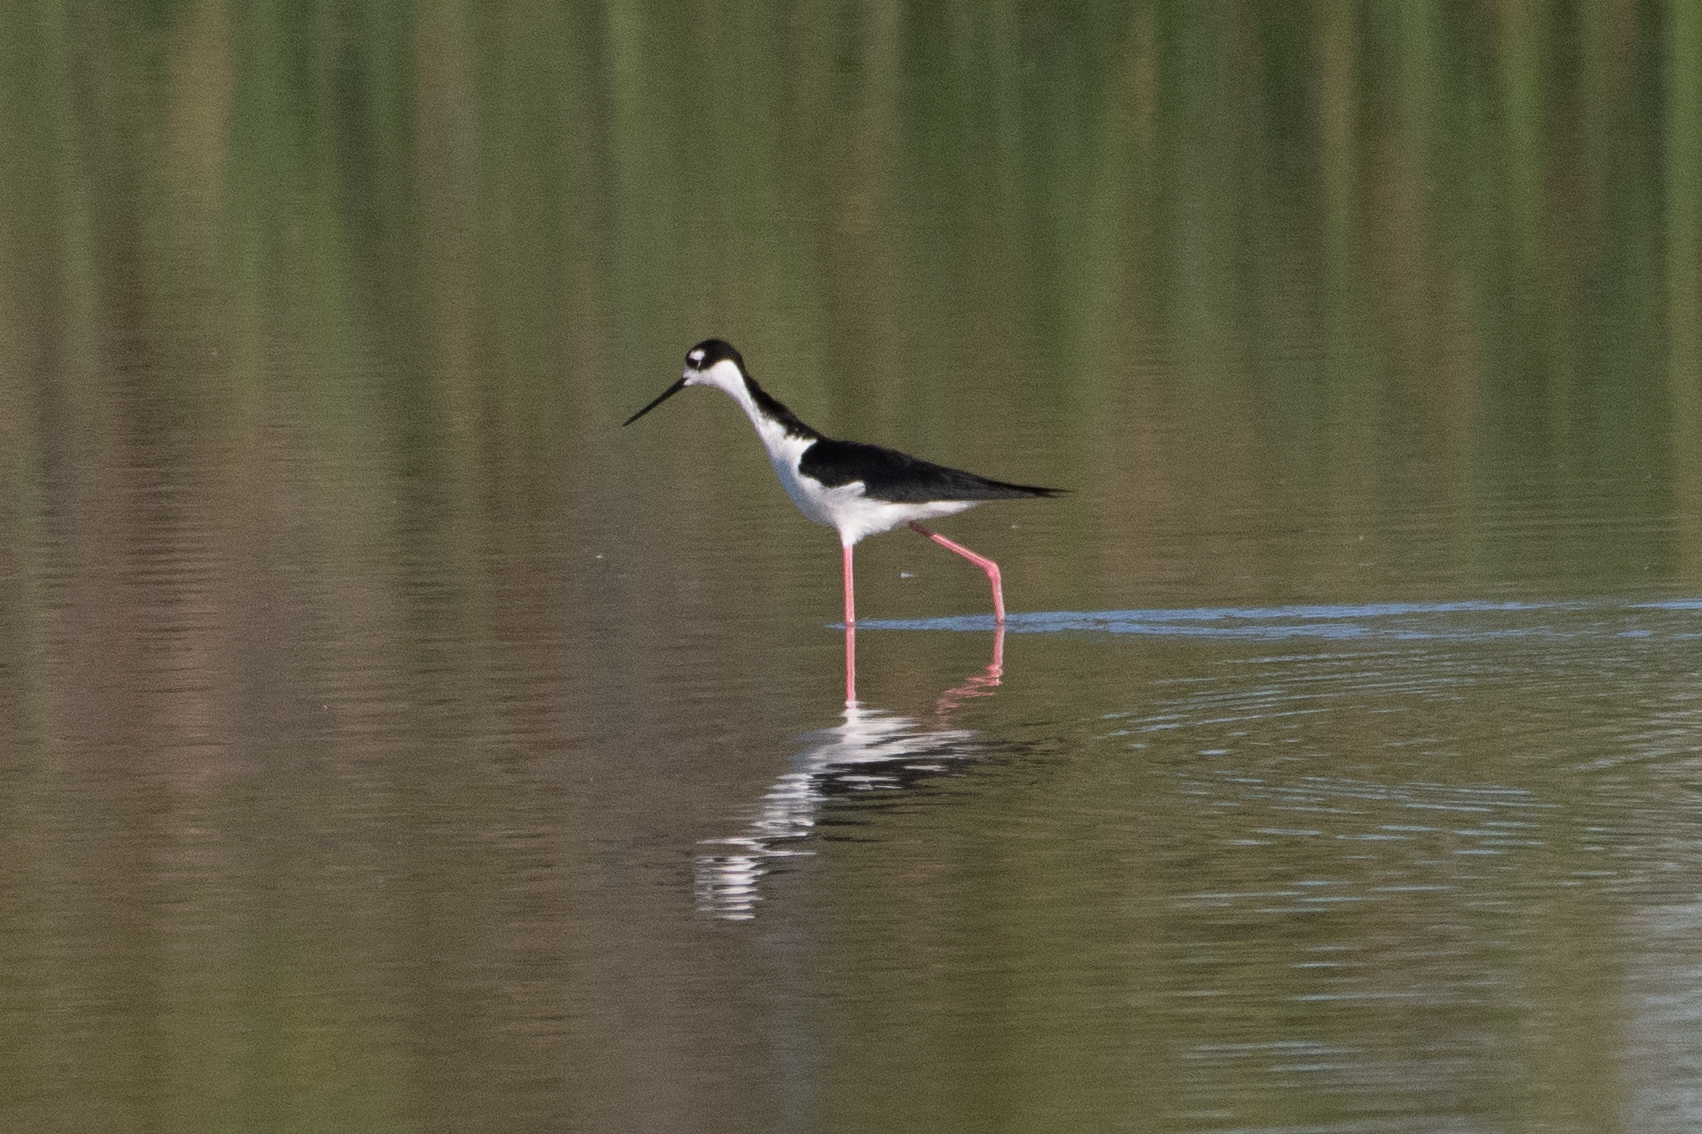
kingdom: Animalia
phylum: Chordata
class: Aves
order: Charadriiformes
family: Recurvirostridae
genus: Himantopus
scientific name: Himantopus mexicanus
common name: Black-necked stilt
